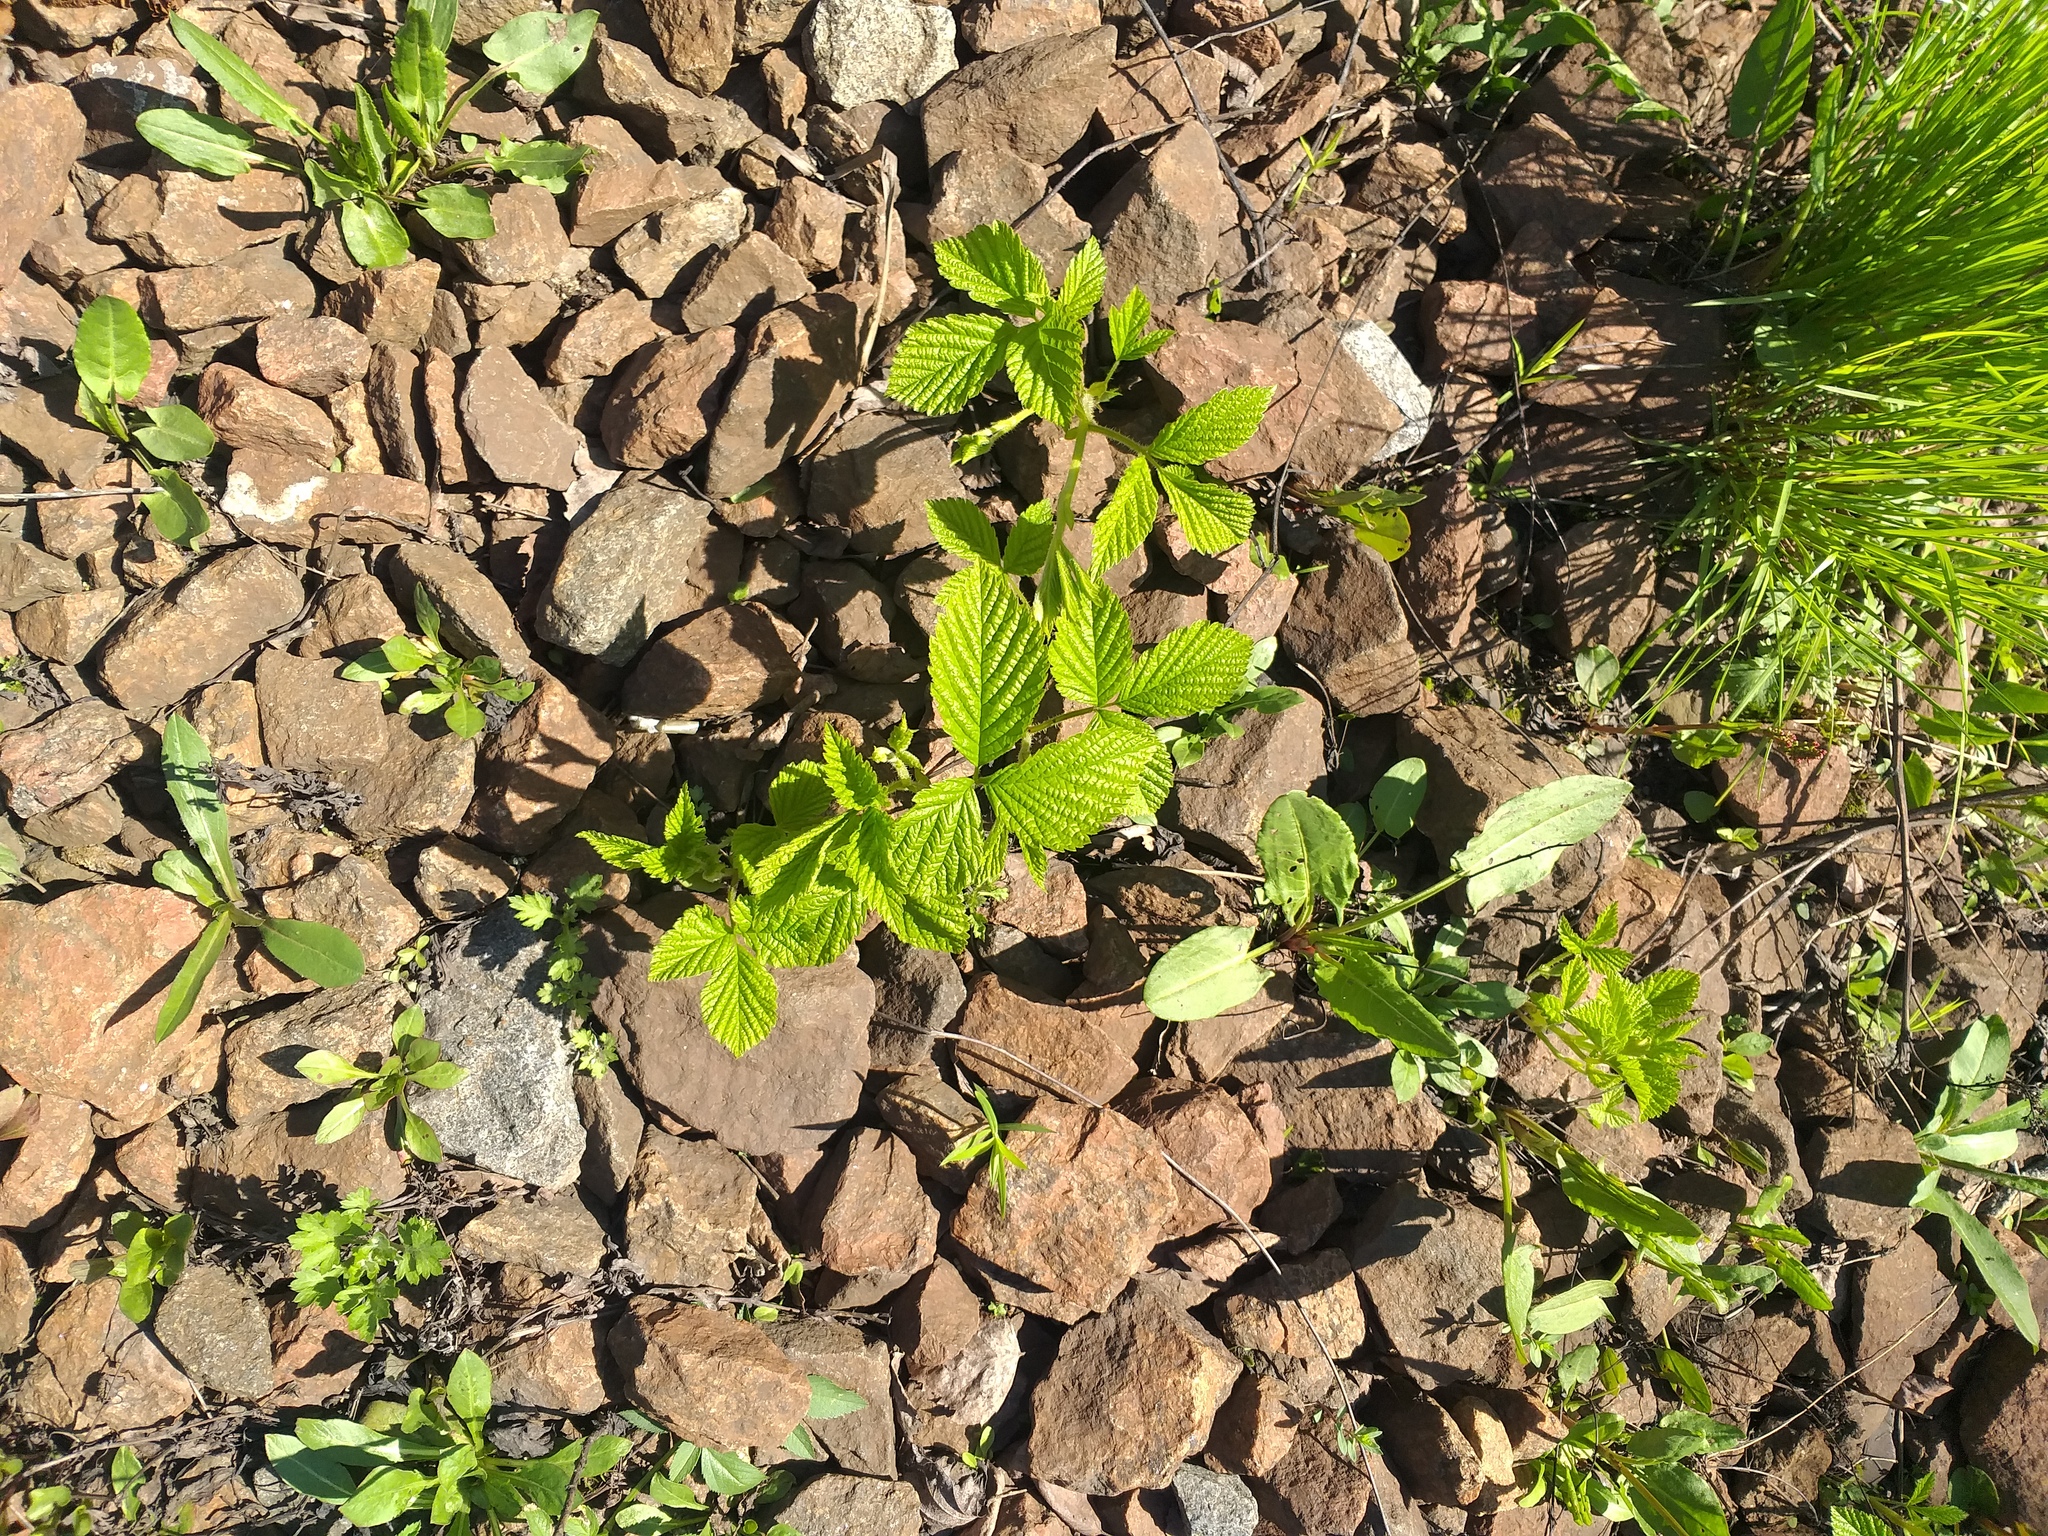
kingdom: Plantae
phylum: Tracheophyta
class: Magnoliopsida
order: Rosales
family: Rosaceae
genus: Rubus
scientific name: Rubus saxatilis
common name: Stone bramble
